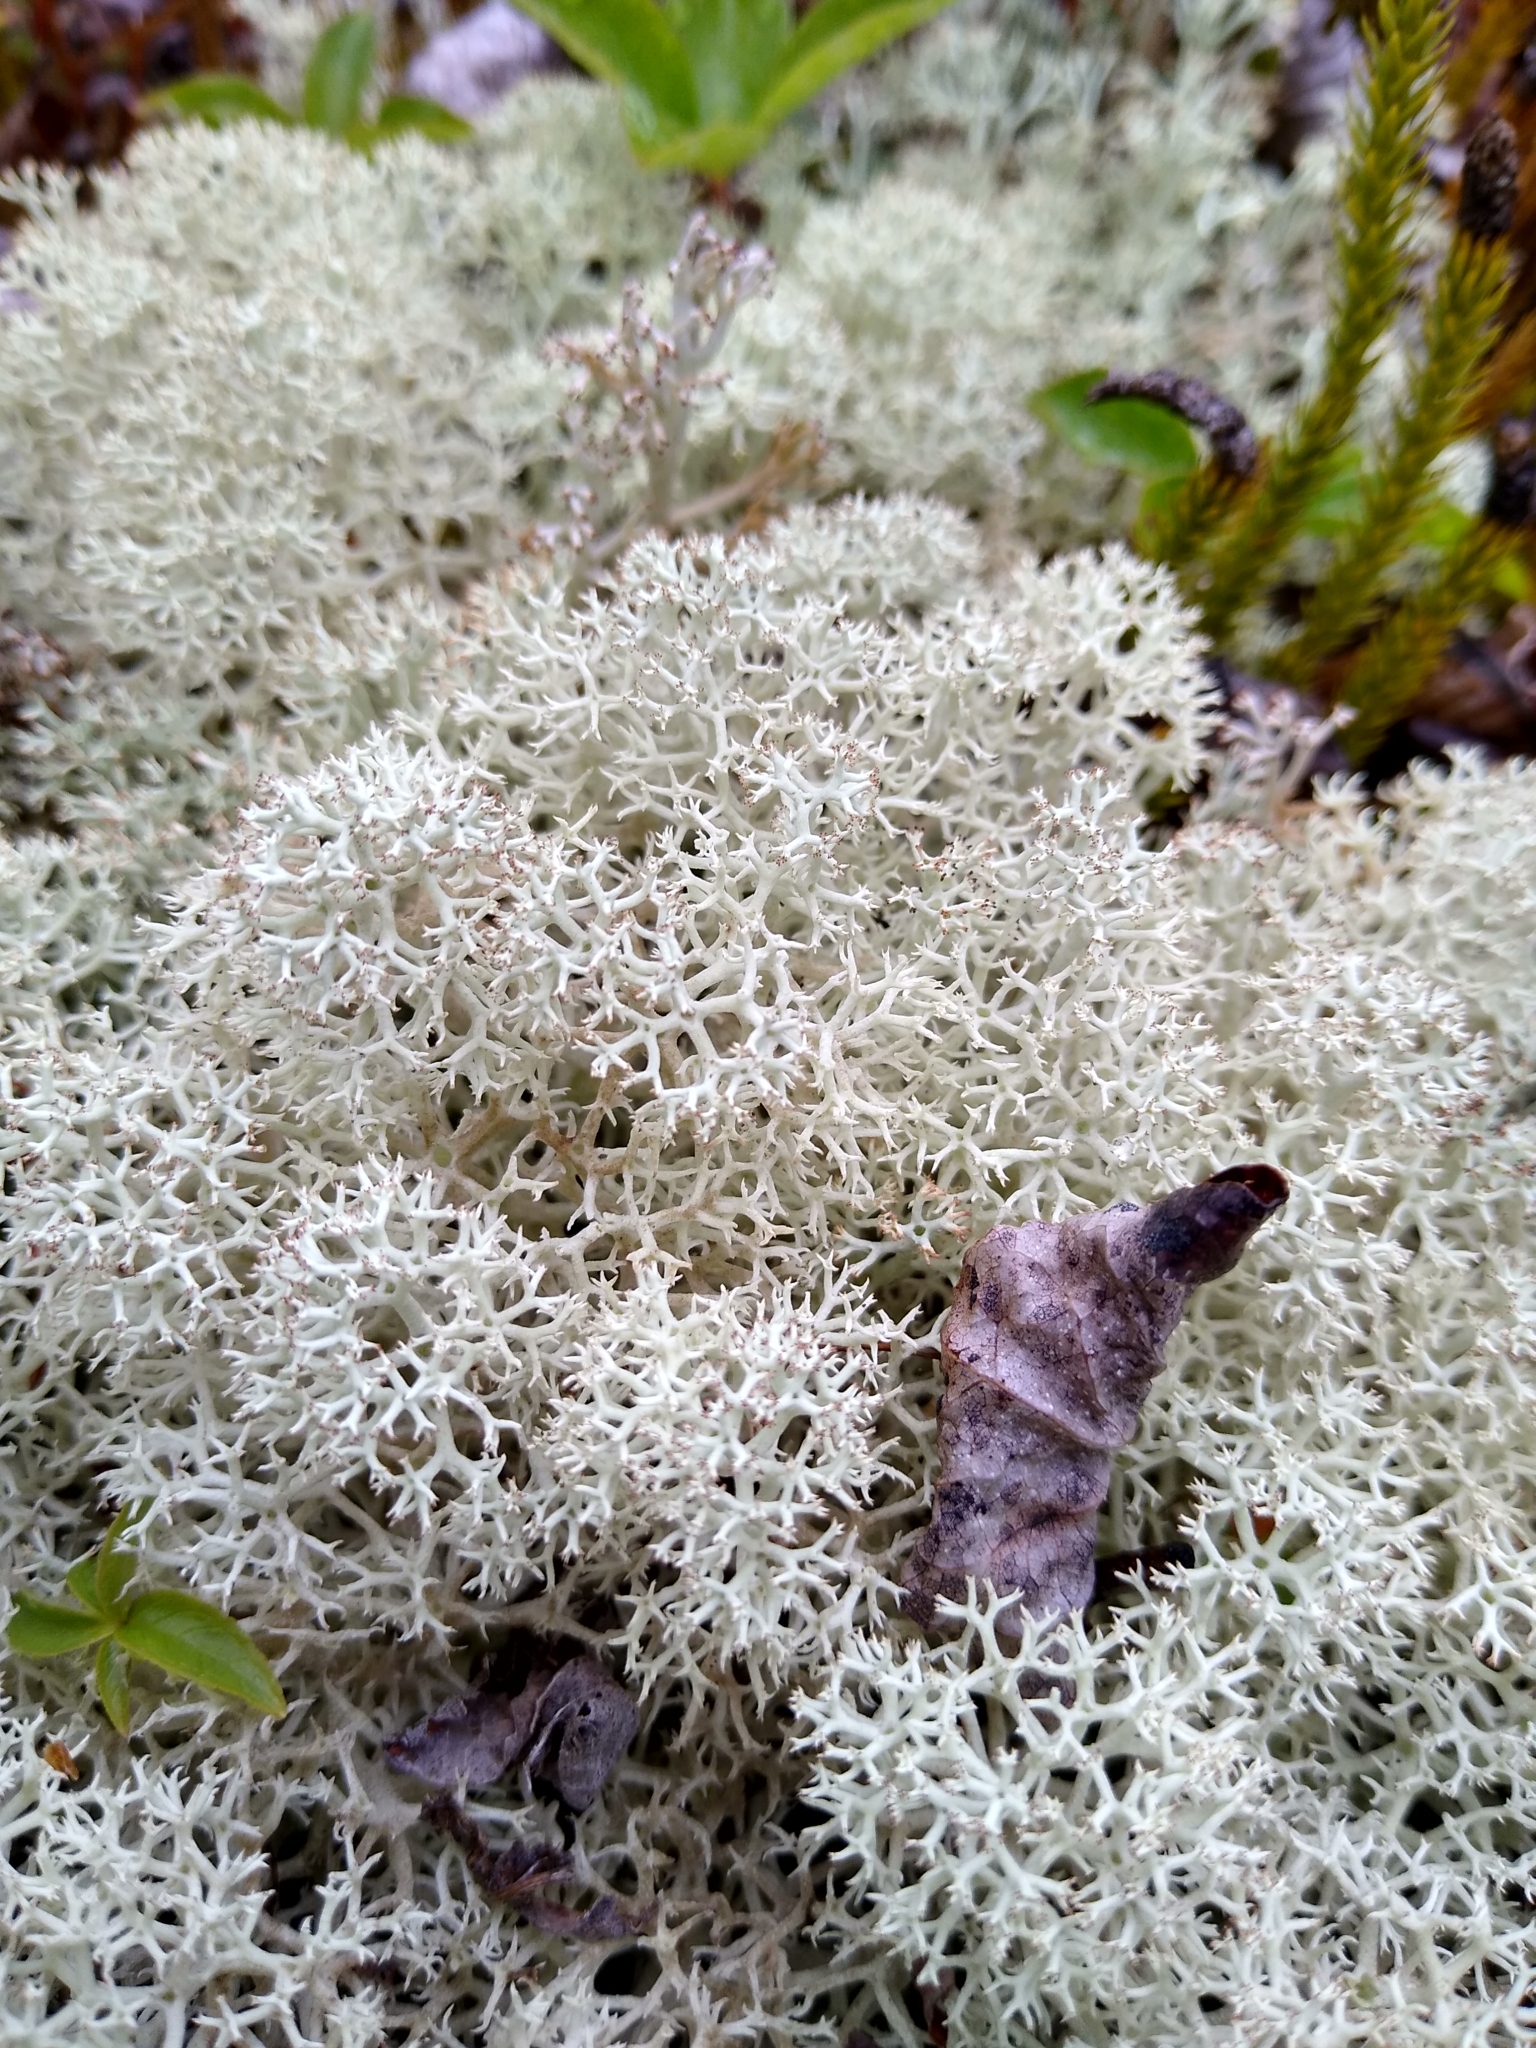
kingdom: Fungi
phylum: Ascomycota
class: Lecanoromycetes
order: Lecanorales
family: Cladoniaceae
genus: Cladonia
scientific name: Cladonia stellaris
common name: Star-tipped reindeer lichen
